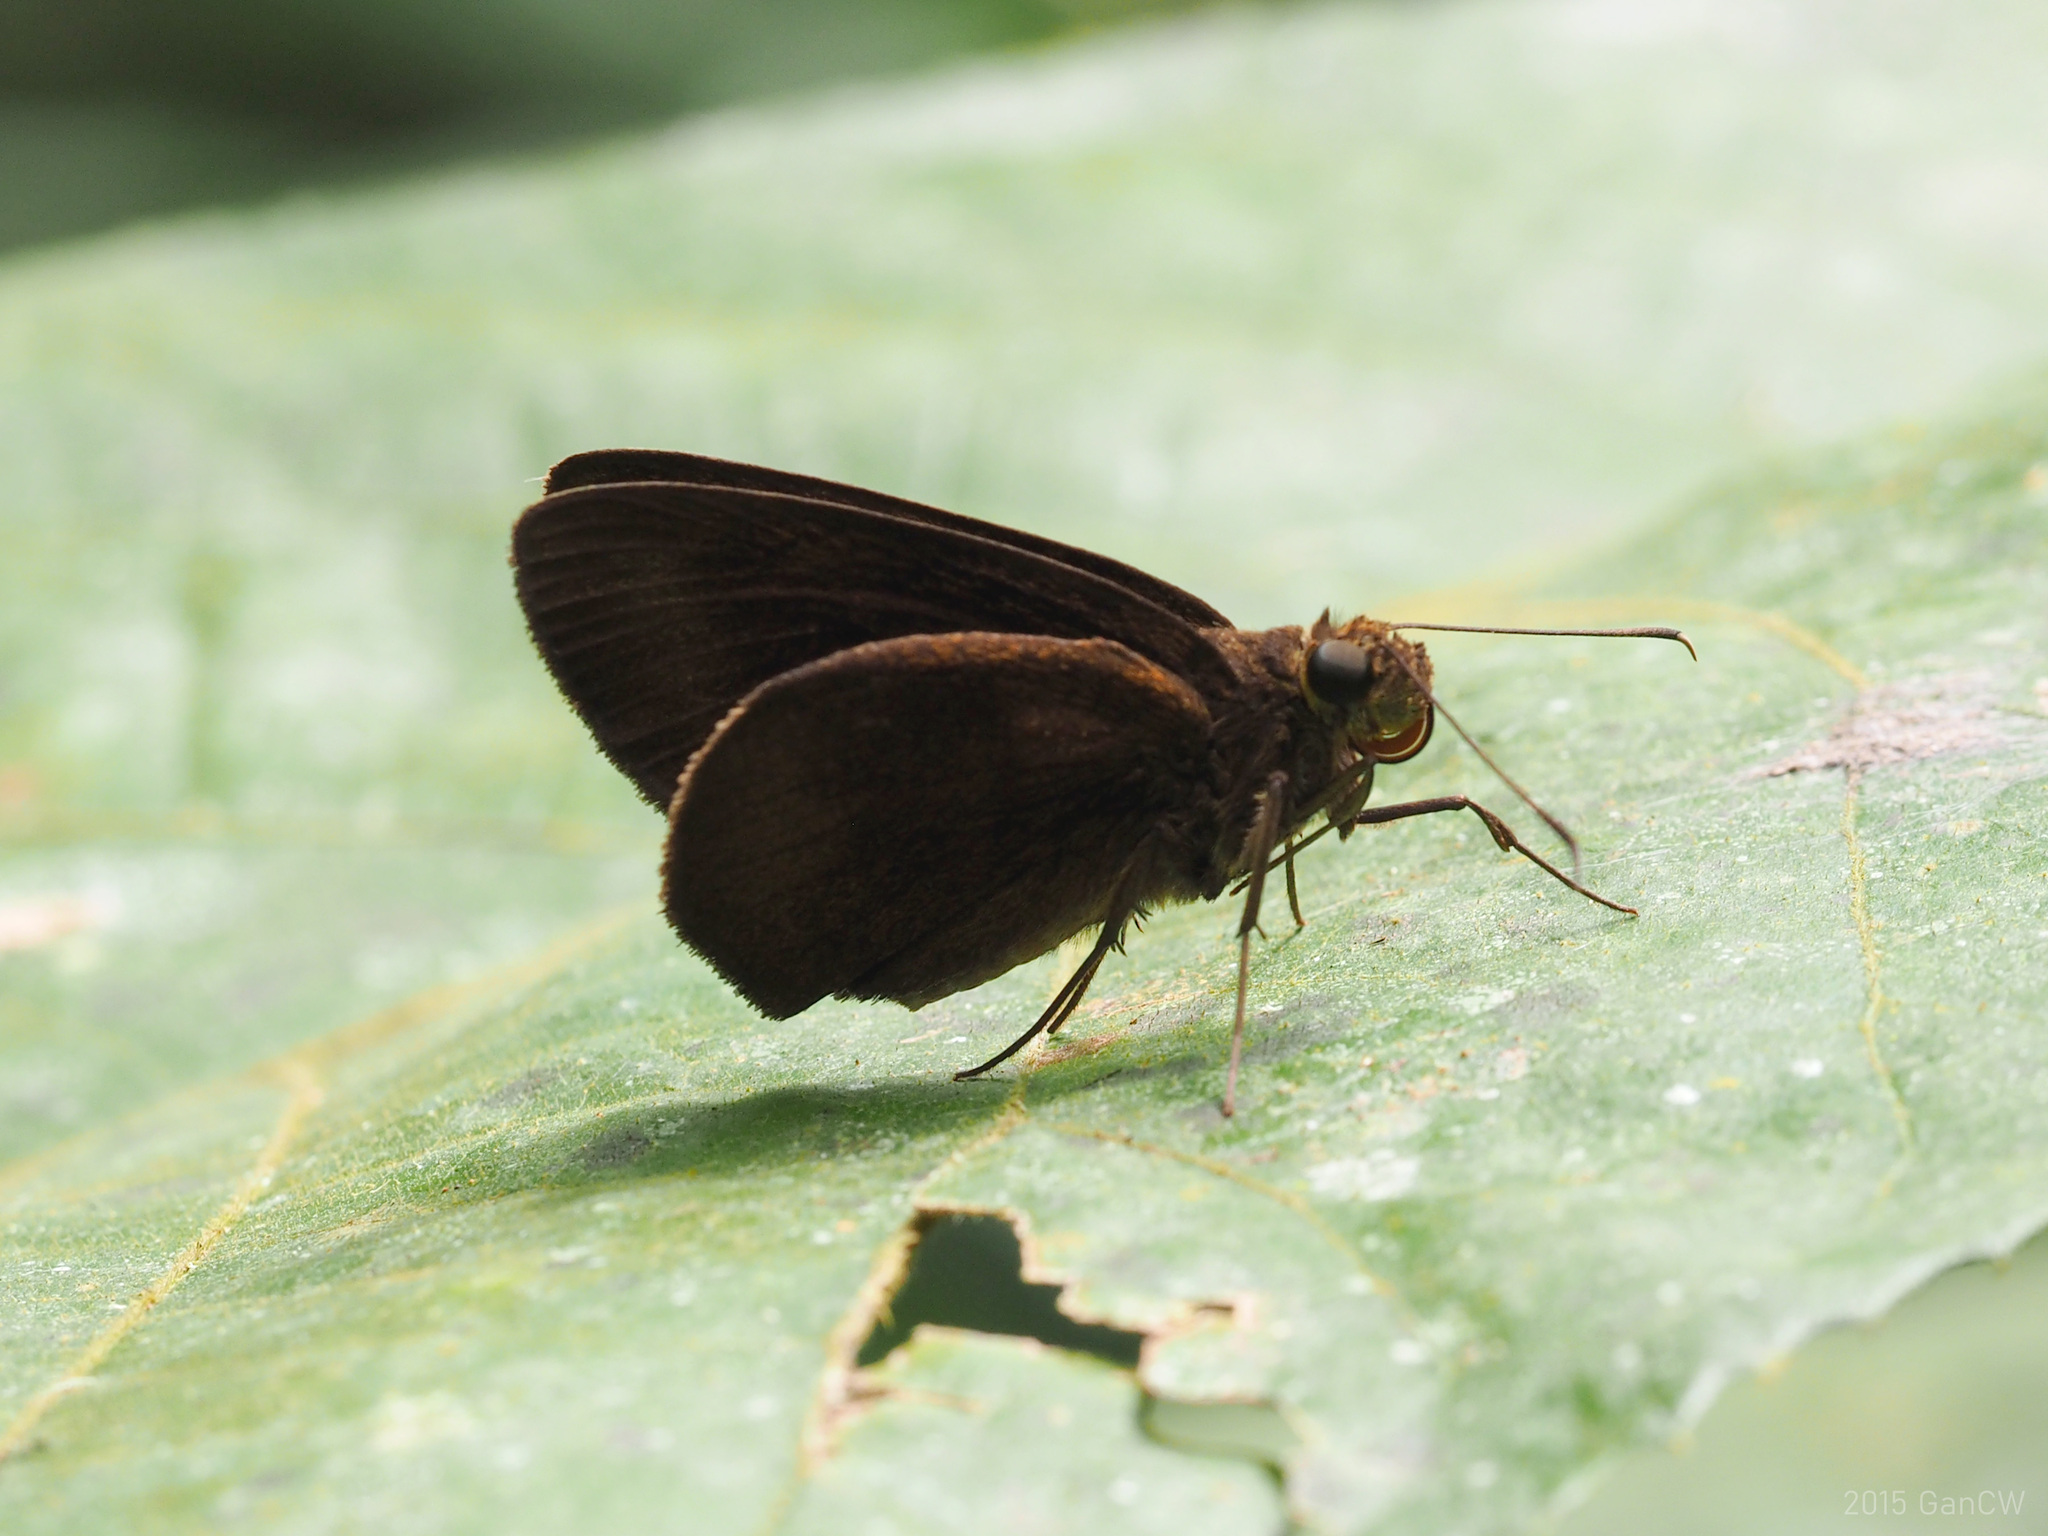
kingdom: Animalia
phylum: Arthropoda
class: Insecta
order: Lepidoptera
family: Hesperiidae
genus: Ancistroides
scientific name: Ancistroides nigrita
